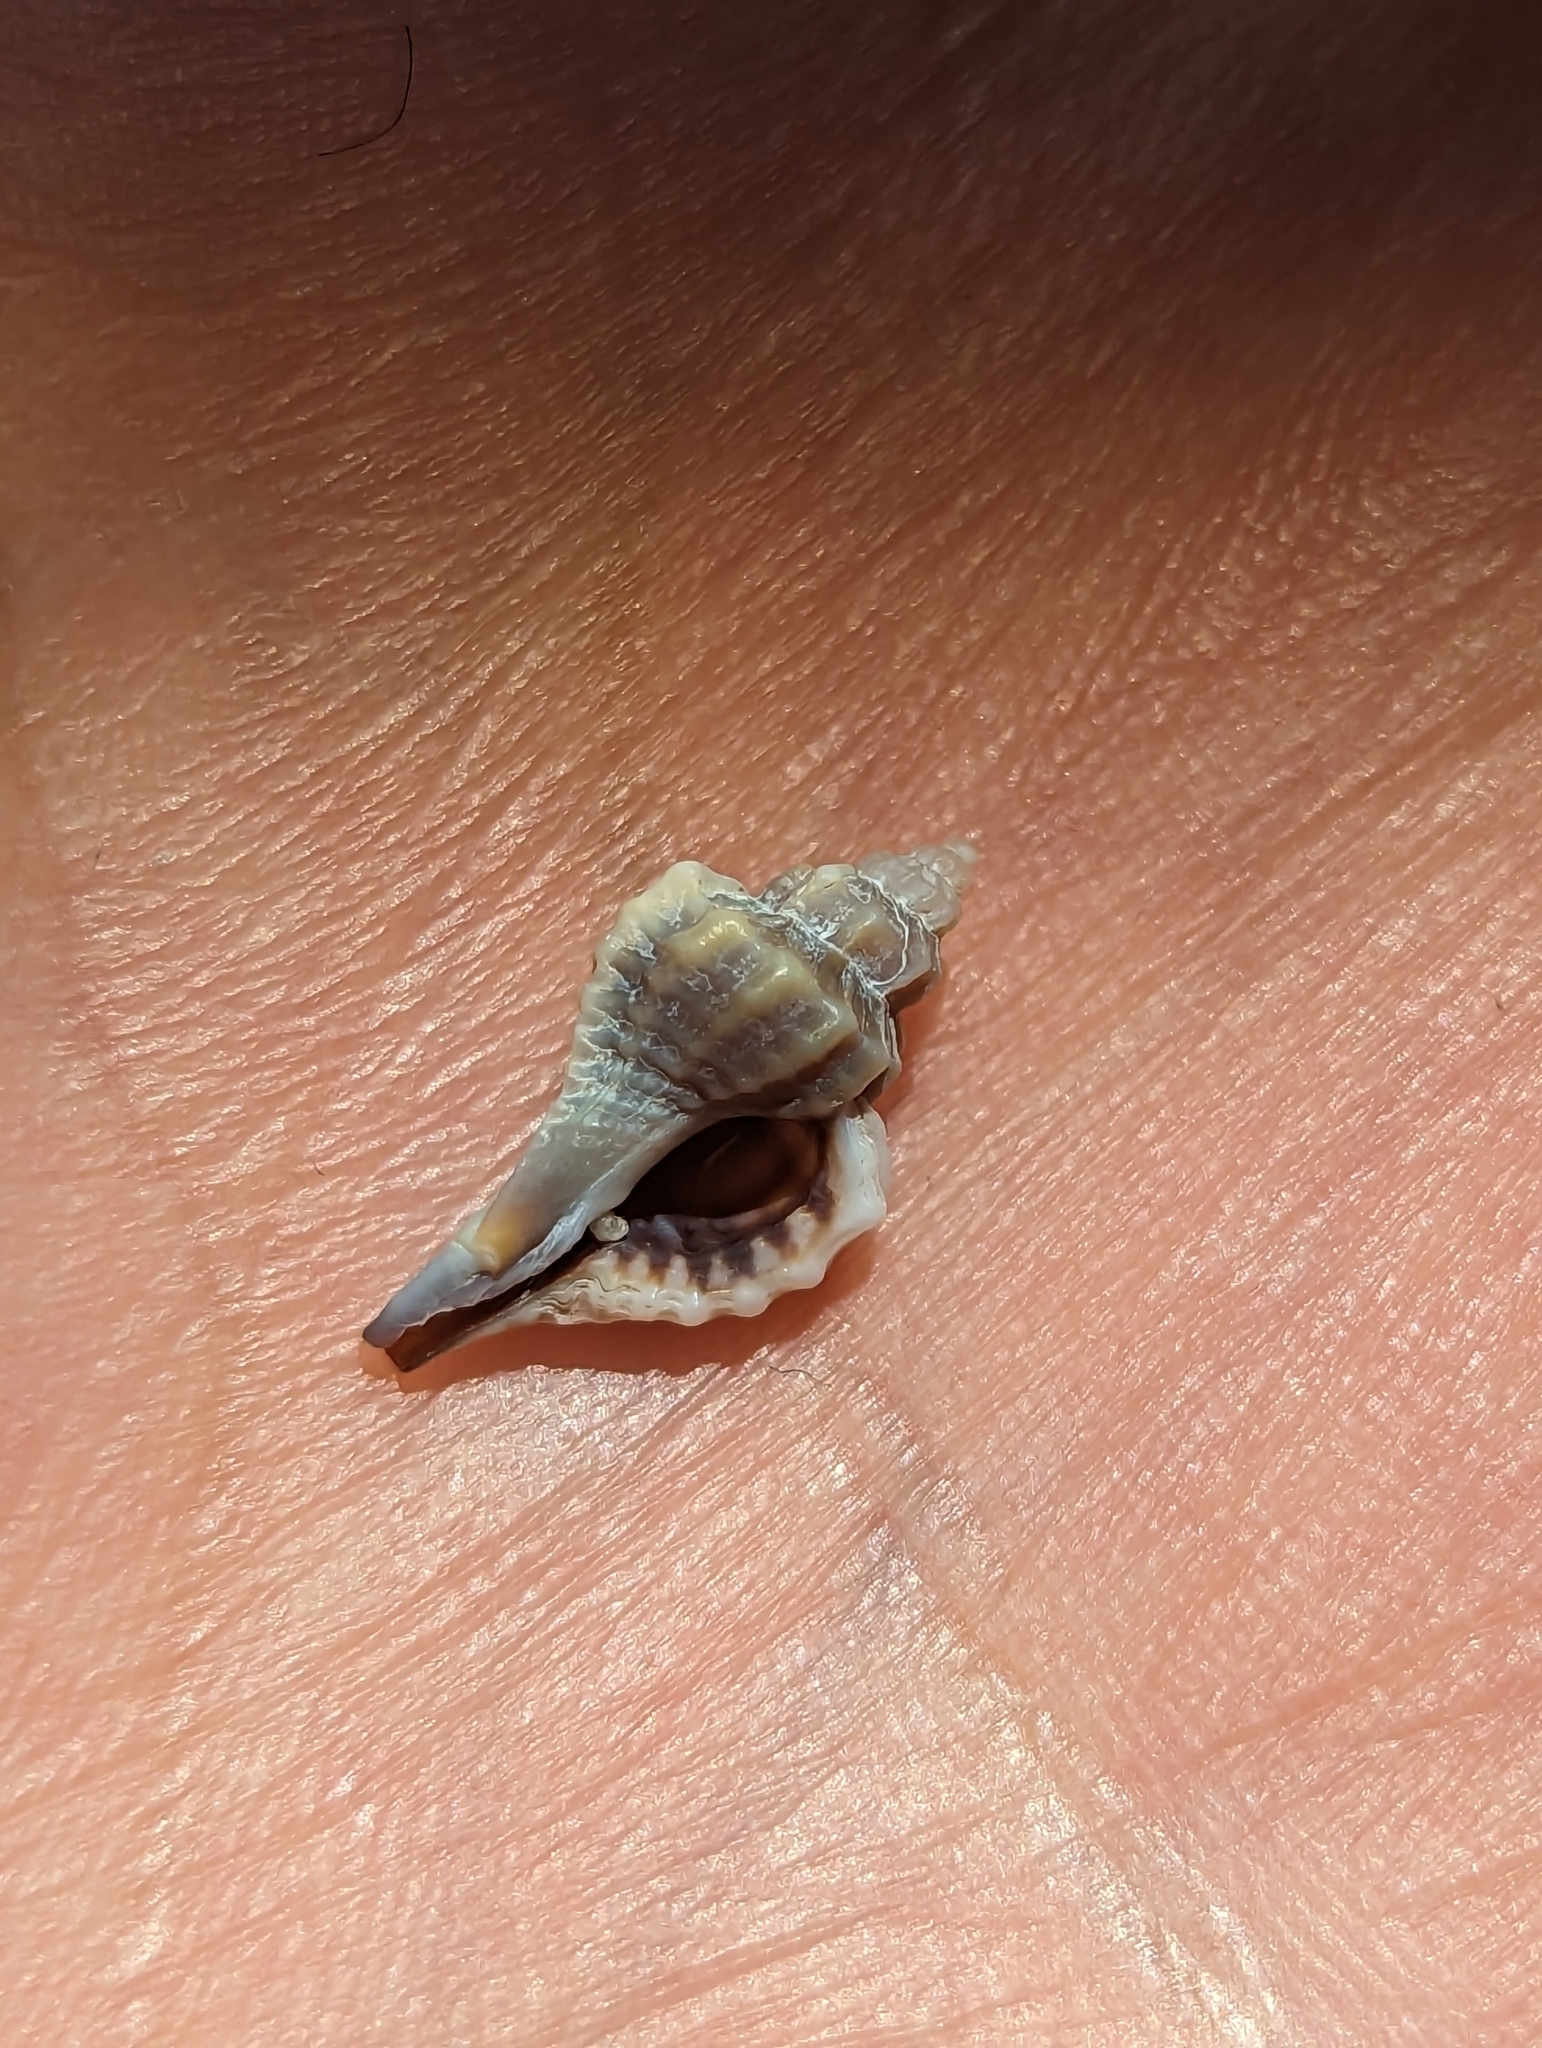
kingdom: Animalia
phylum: Mollusca
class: Gastropoda
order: Neogastropoda
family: Muricidae
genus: Eupleura
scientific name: Eupleura caudata
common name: Thick-lip drill
